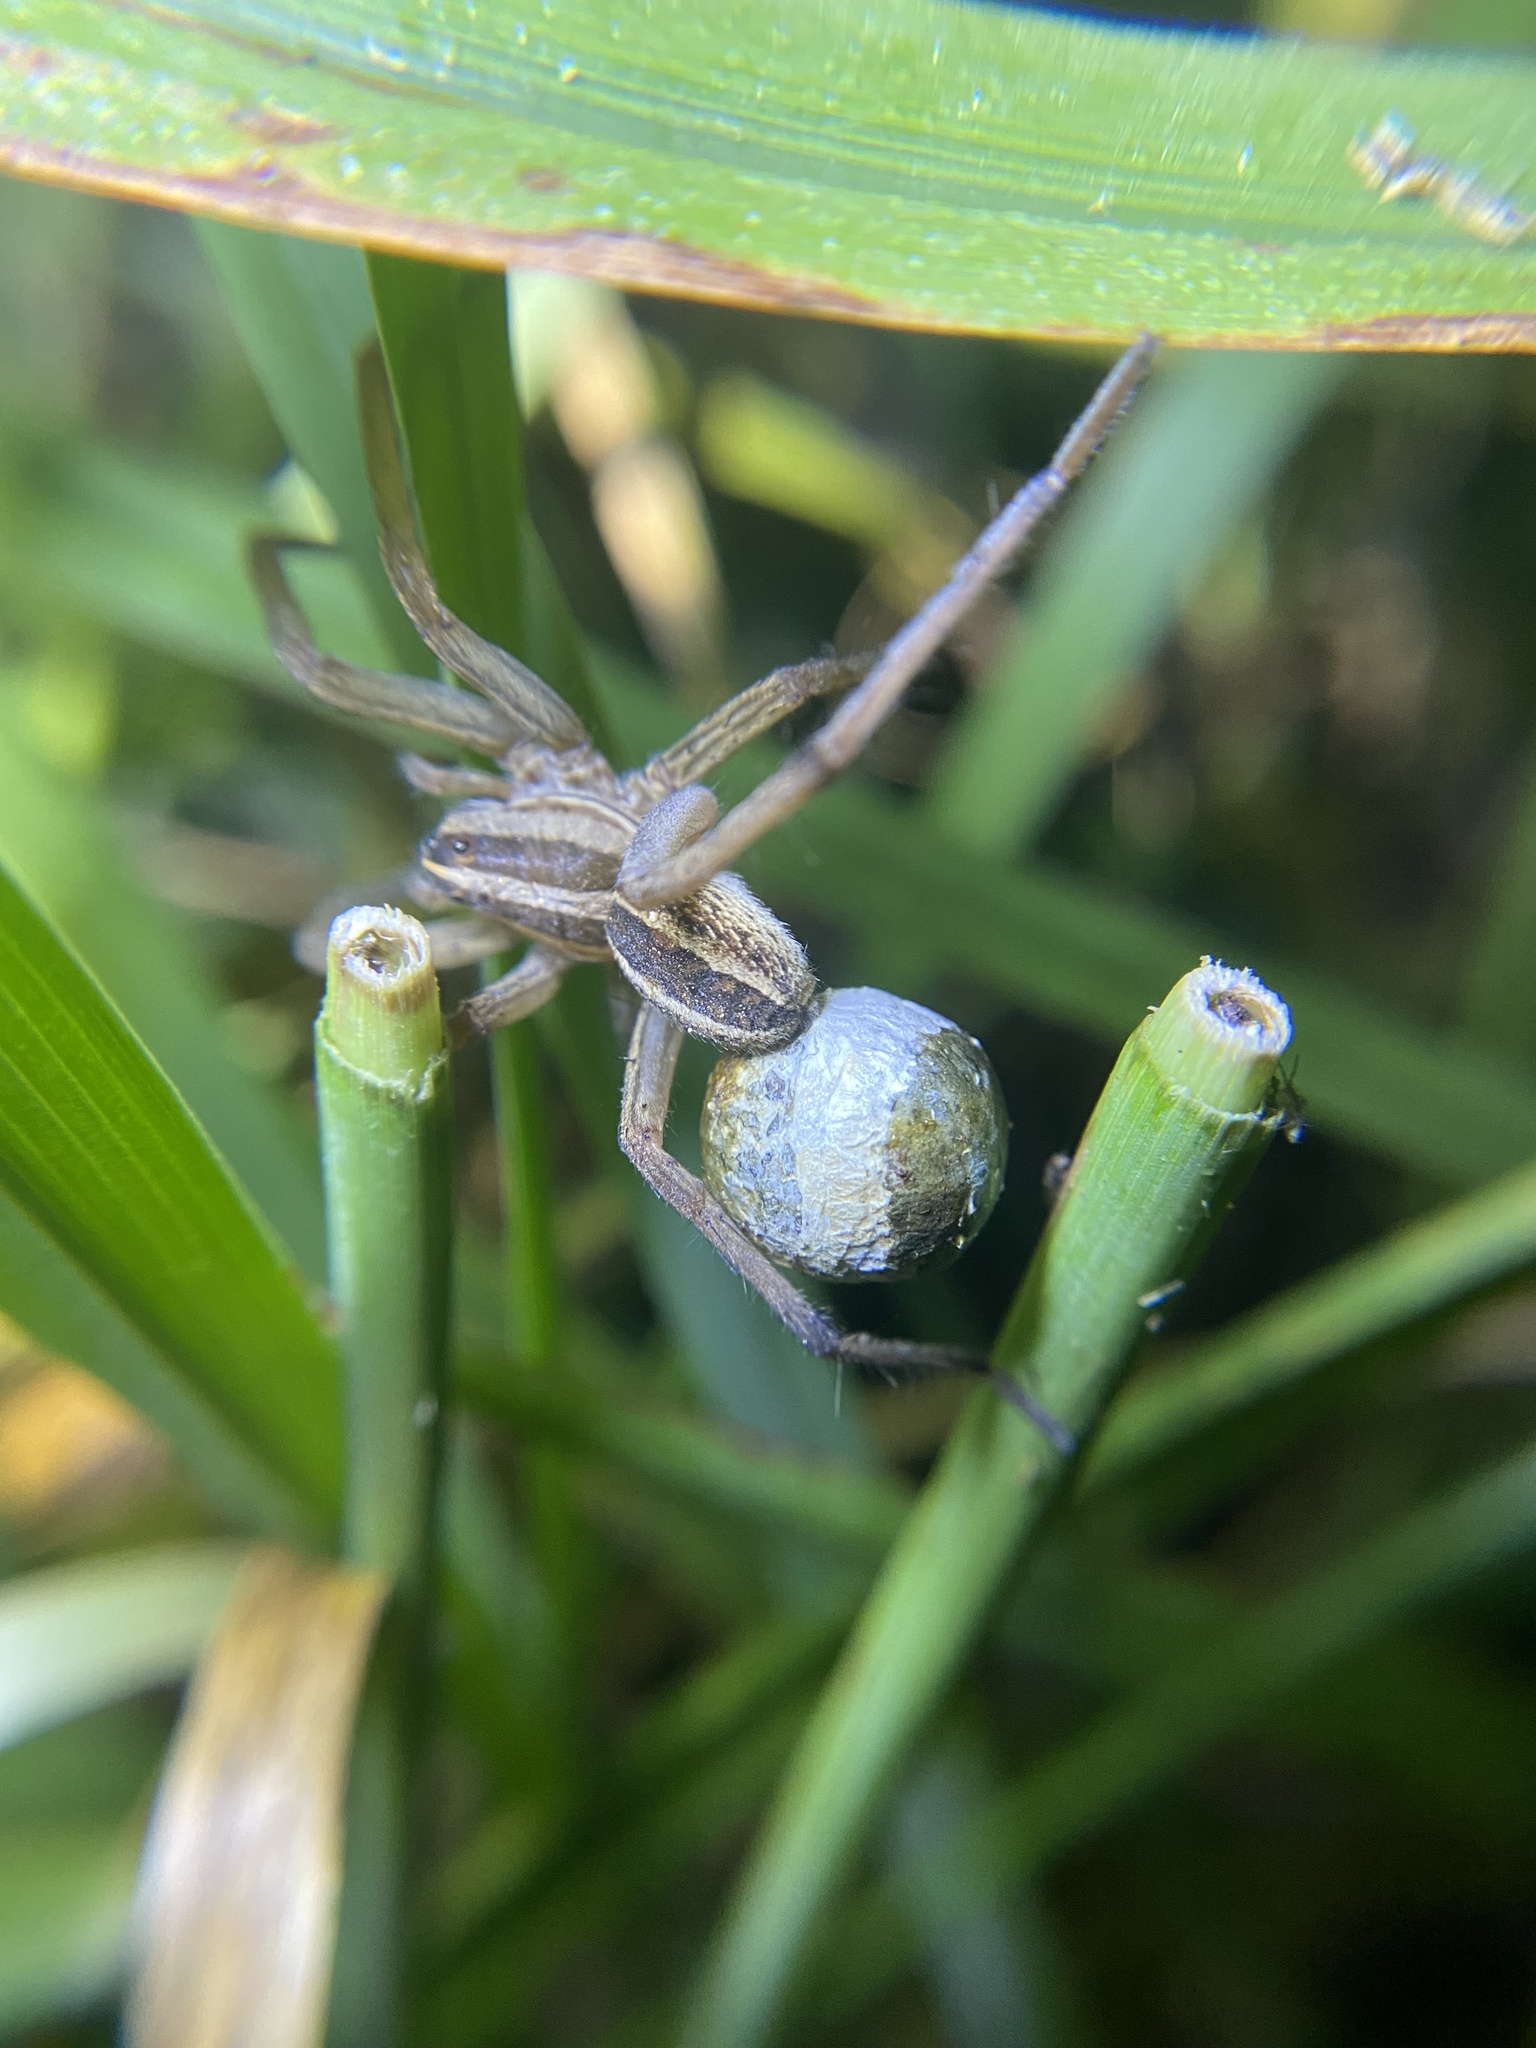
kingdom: Animalia
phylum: Arthropoda
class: Arachnida
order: Araneae
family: Lycosidae
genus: Rabidosa
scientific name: Rabidosa rabida
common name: Rabid wolf spider
